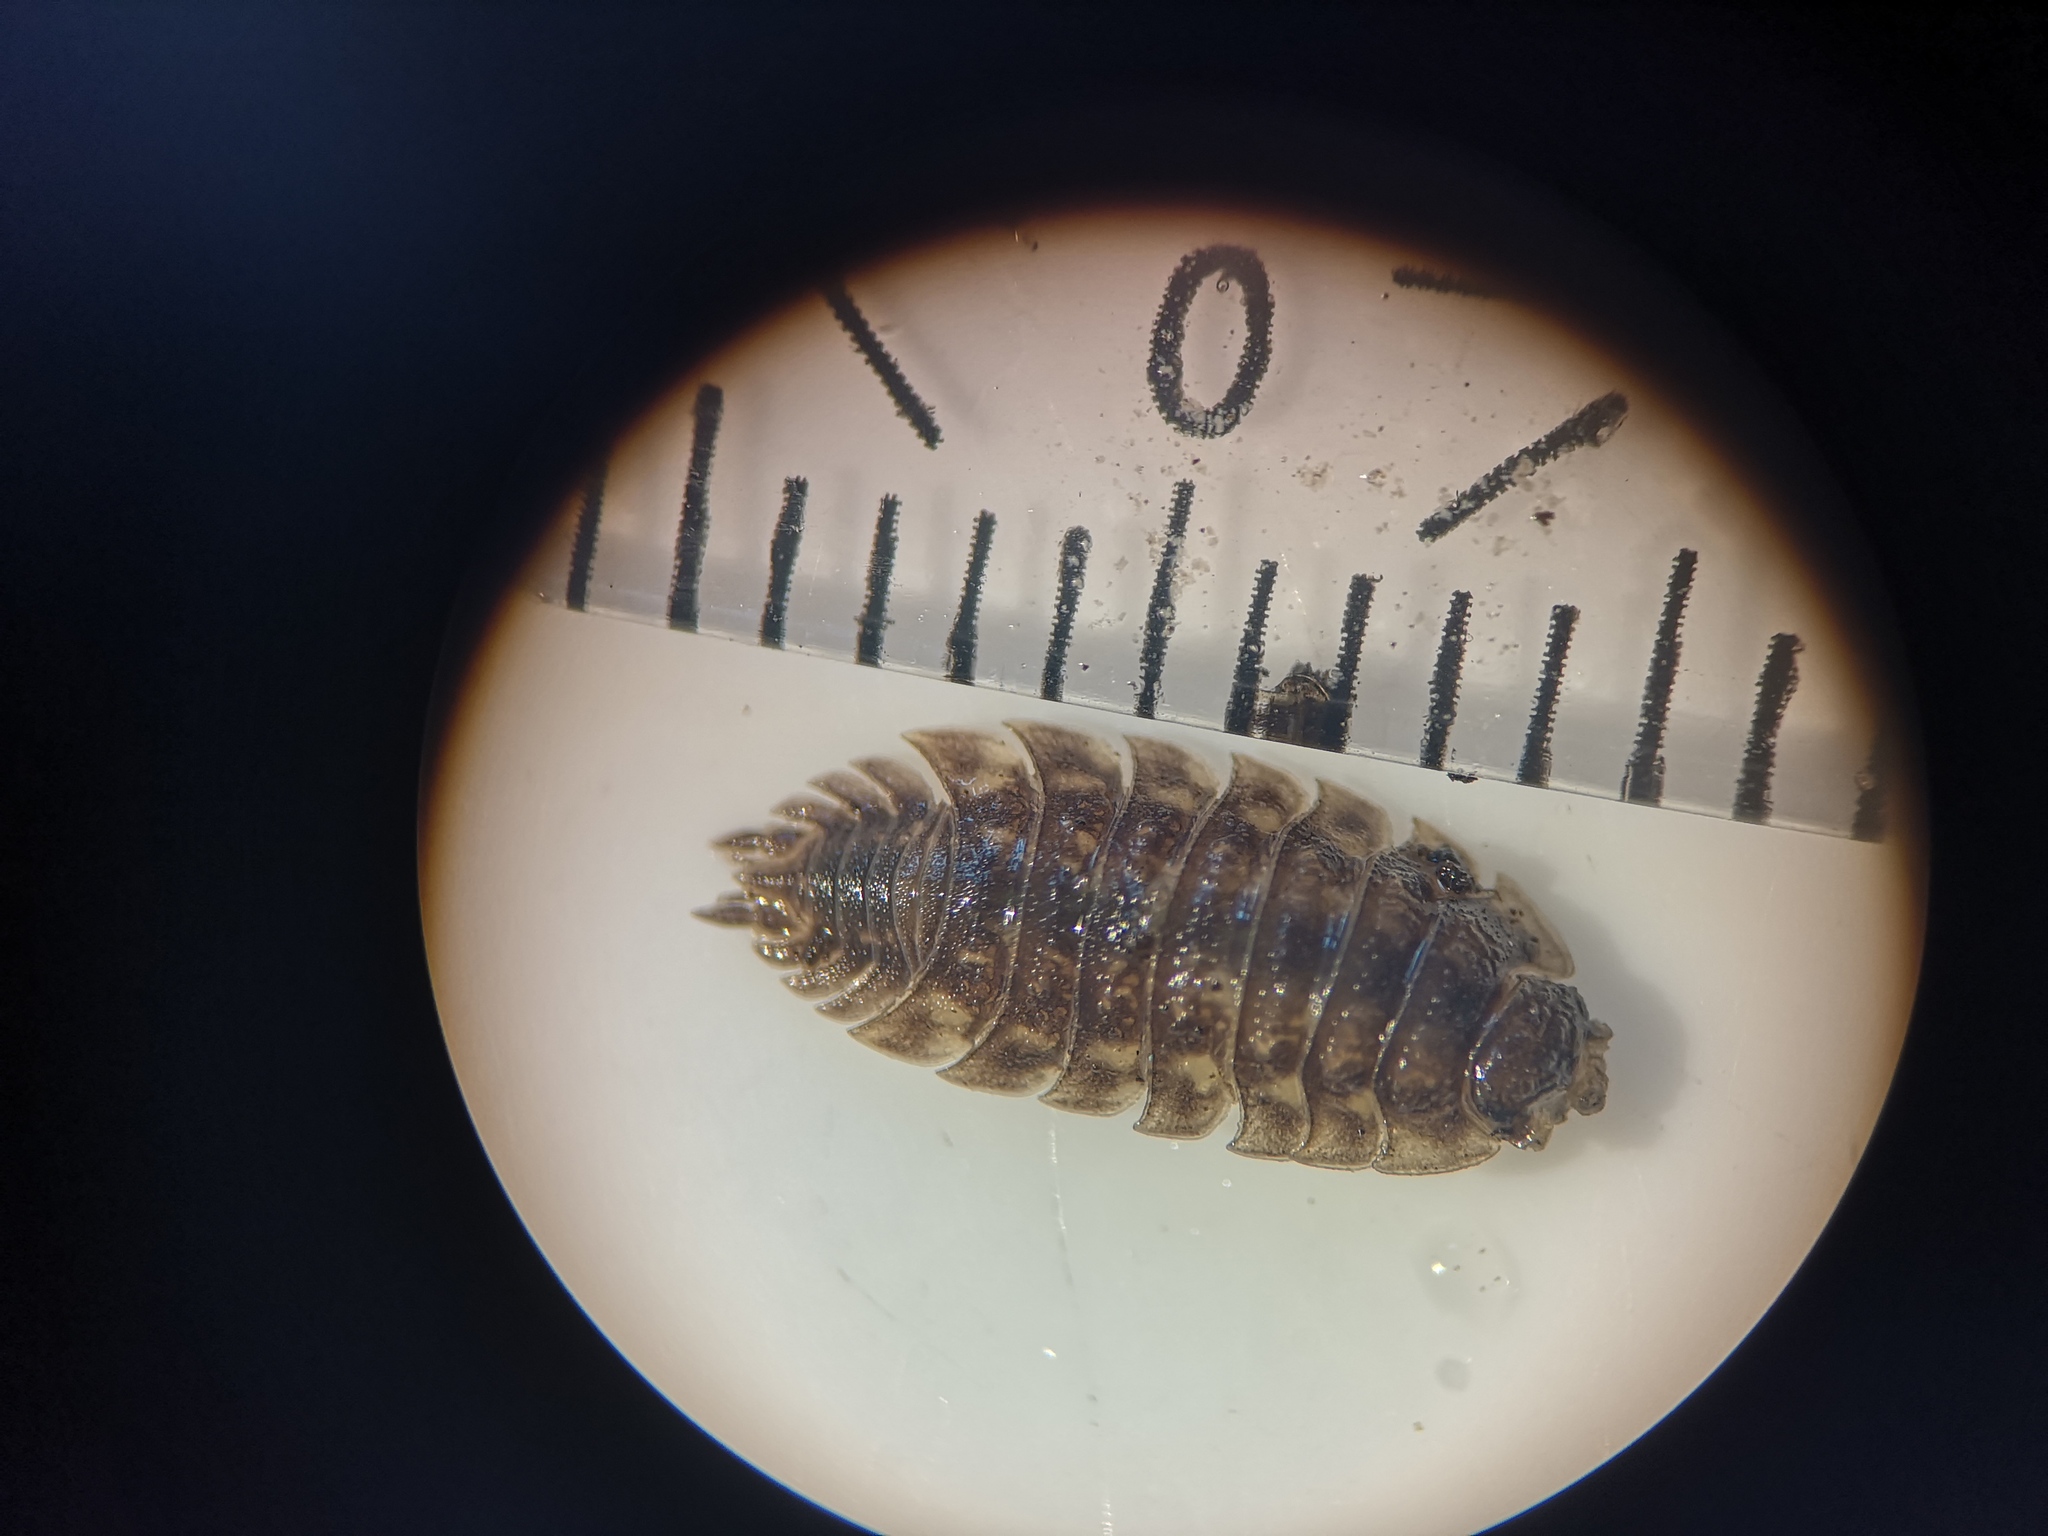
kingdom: Animalia
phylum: Arthropoda
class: Malacostraca
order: Isopoda
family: Oniscidae
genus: Oniscus
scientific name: Oniscus asellus
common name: Common shiny woodlouse
